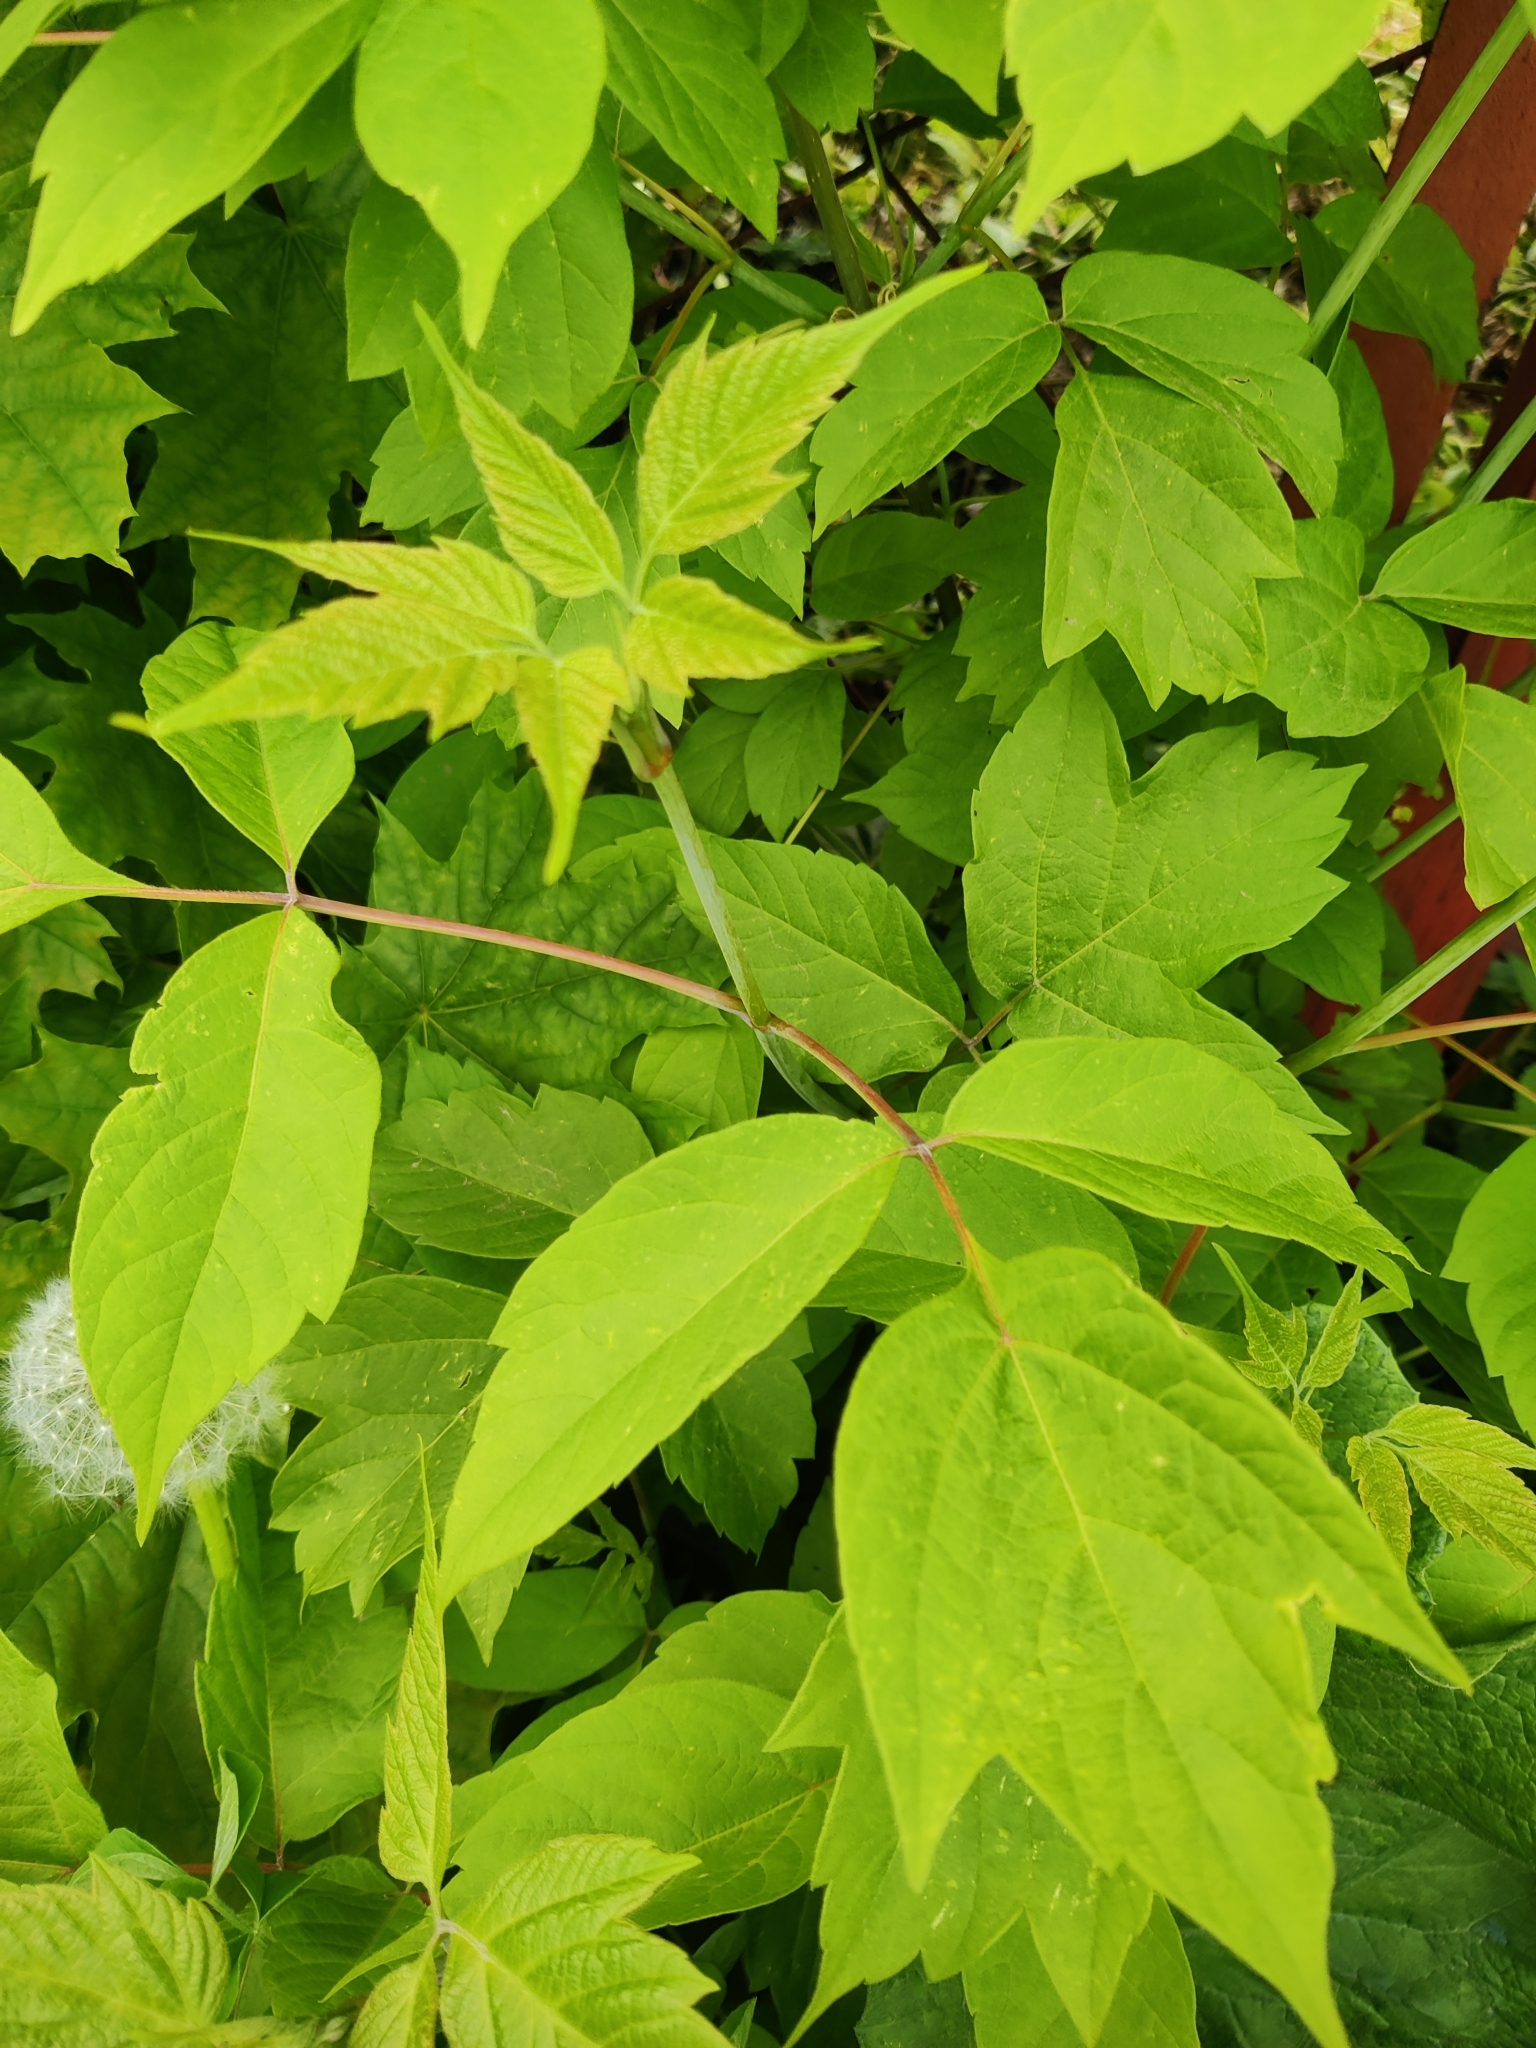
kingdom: Plantae
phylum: Tracheophyta
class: Magnoliopsida
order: Sapindales
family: Sapindaceae
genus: Acer
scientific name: Acer negundo
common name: Ashleaf maple
